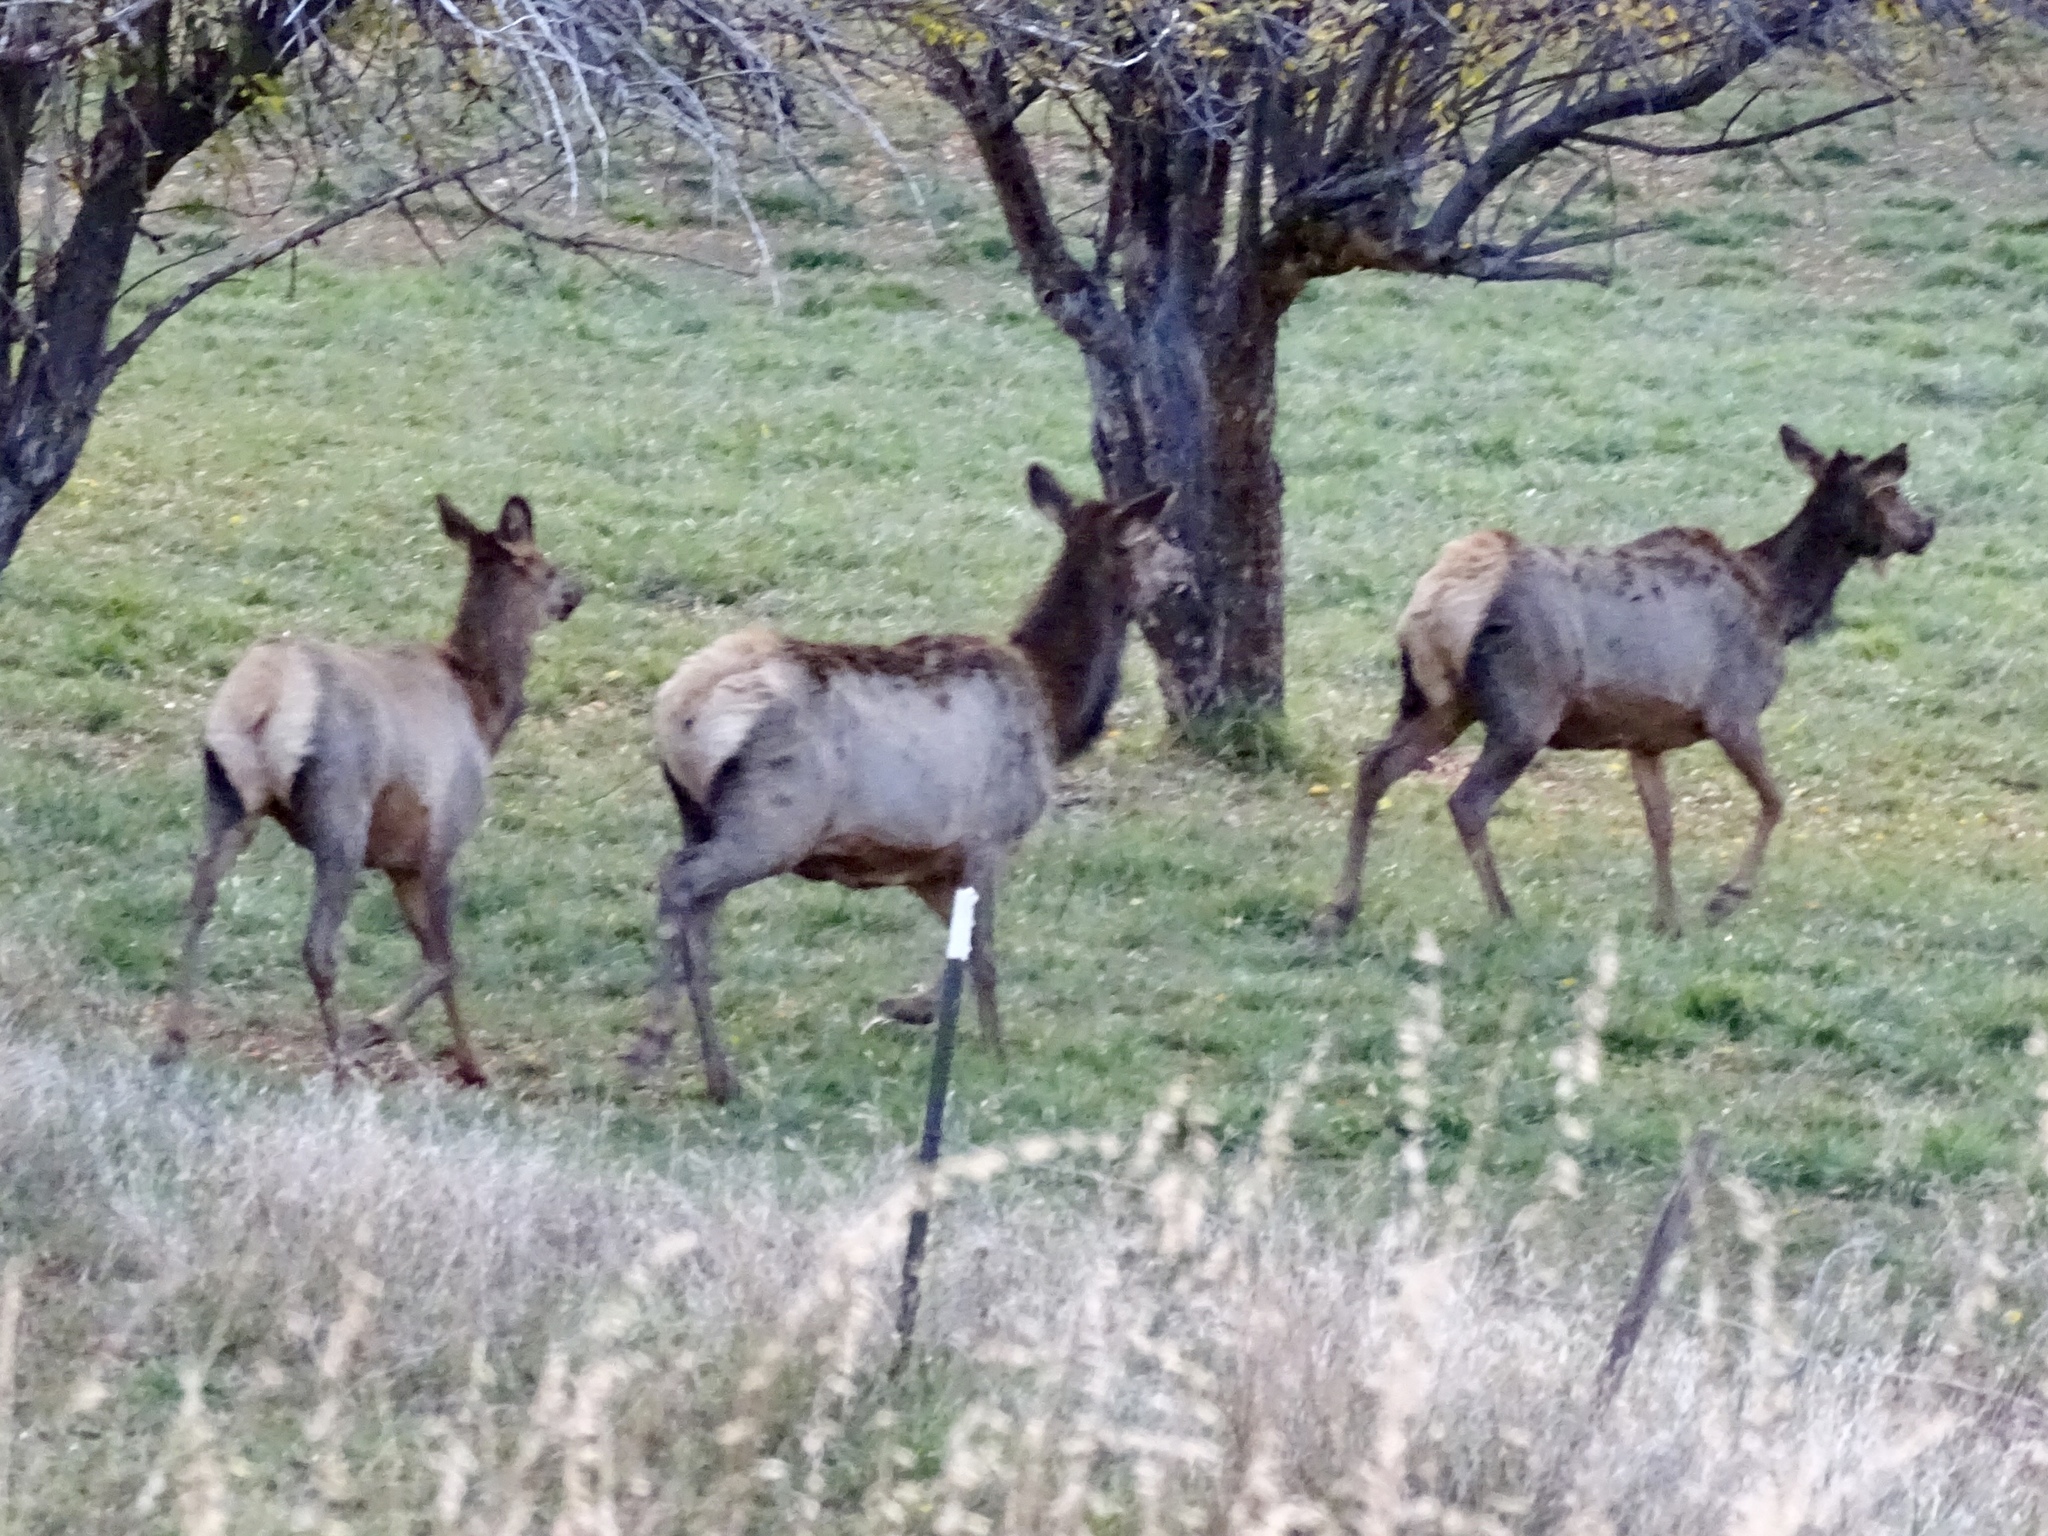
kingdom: Animalia
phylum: Chordata
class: Mammalia
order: Artiodactyla
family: Cervidae
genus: Cervus
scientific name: Cervus elaphus
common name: Red deer
